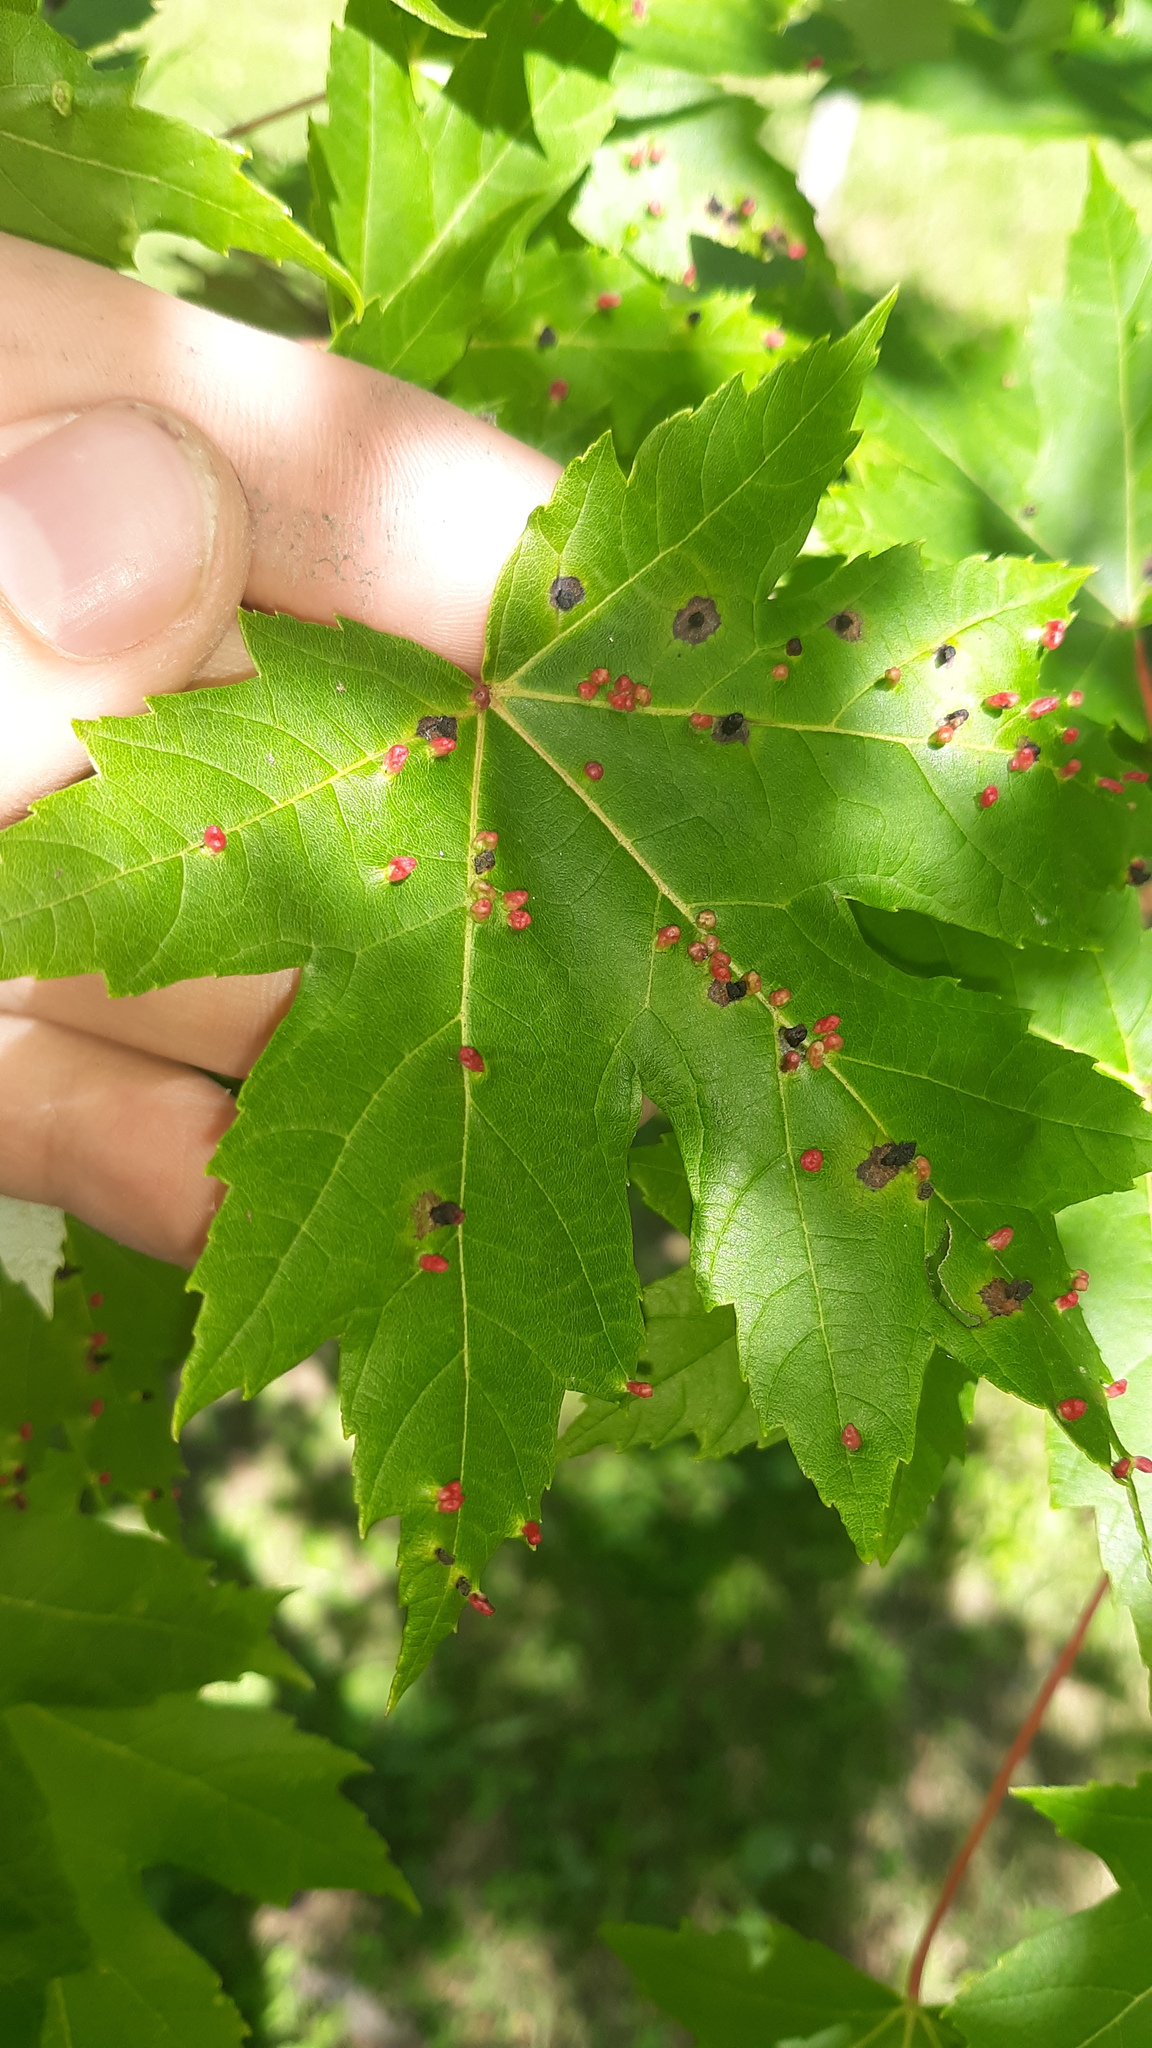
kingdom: Animalia
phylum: Arthropoda
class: Arachnida
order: Trombidiformes
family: Eriophyidae
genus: Vasates
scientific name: Vasates quadripedes
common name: Maple bladder gall mite
